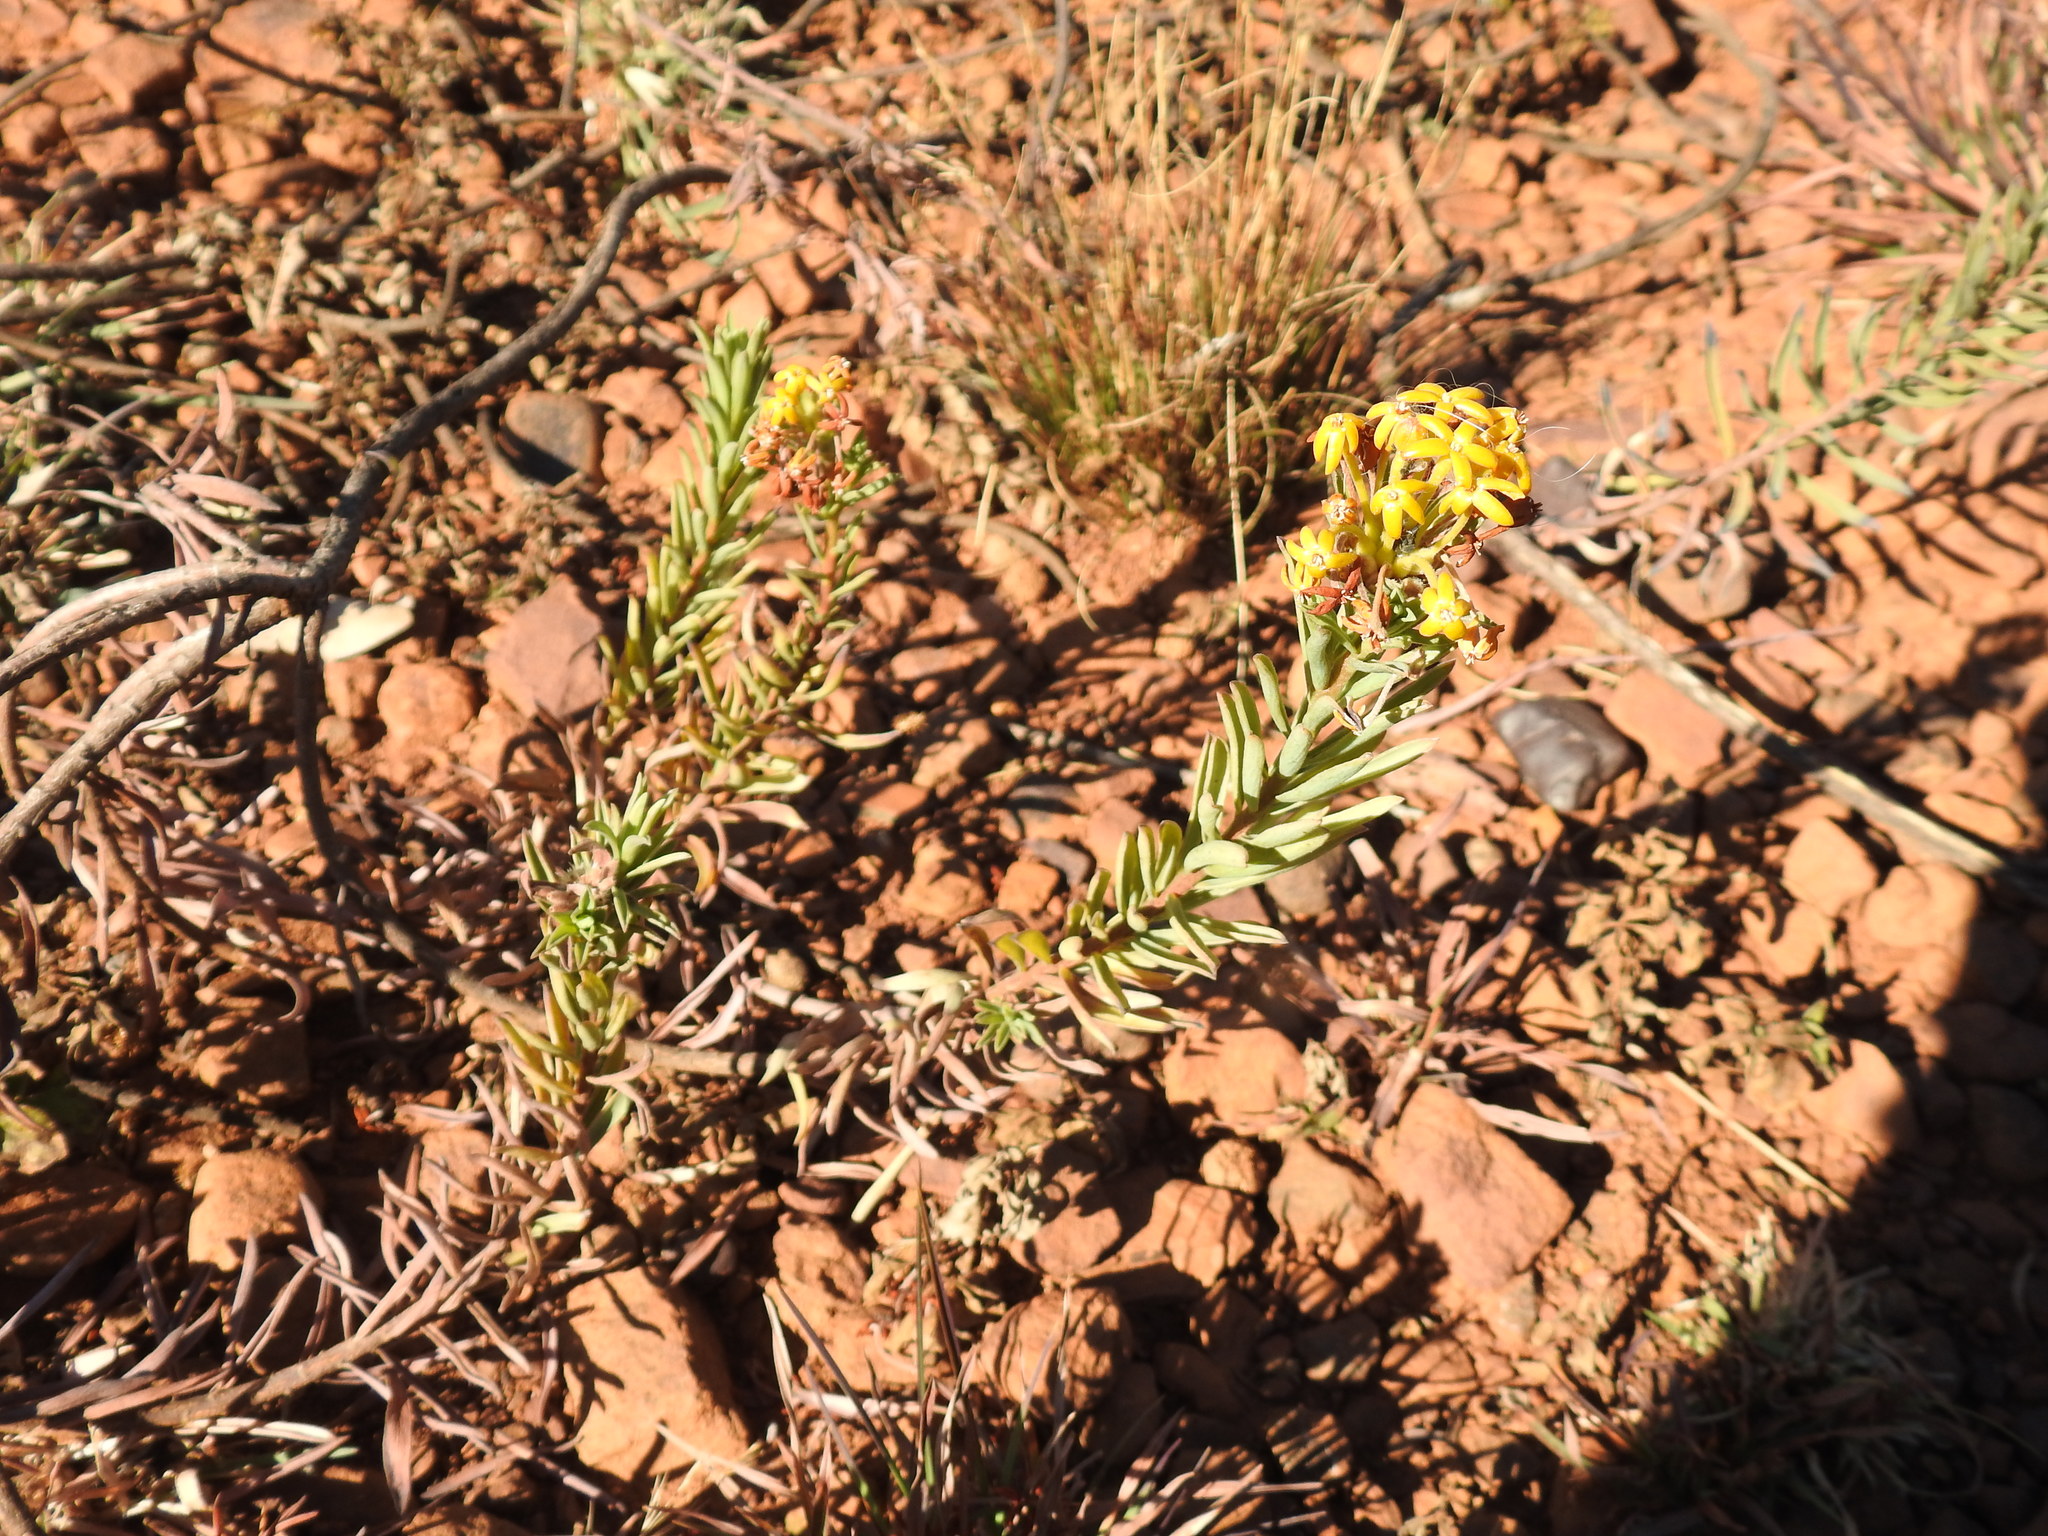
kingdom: Plantae
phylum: Tracheophyta
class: Magnoliopsida
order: Malvales
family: Thymelaeaceae
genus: Gnidia
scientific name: Gnidia capitata
